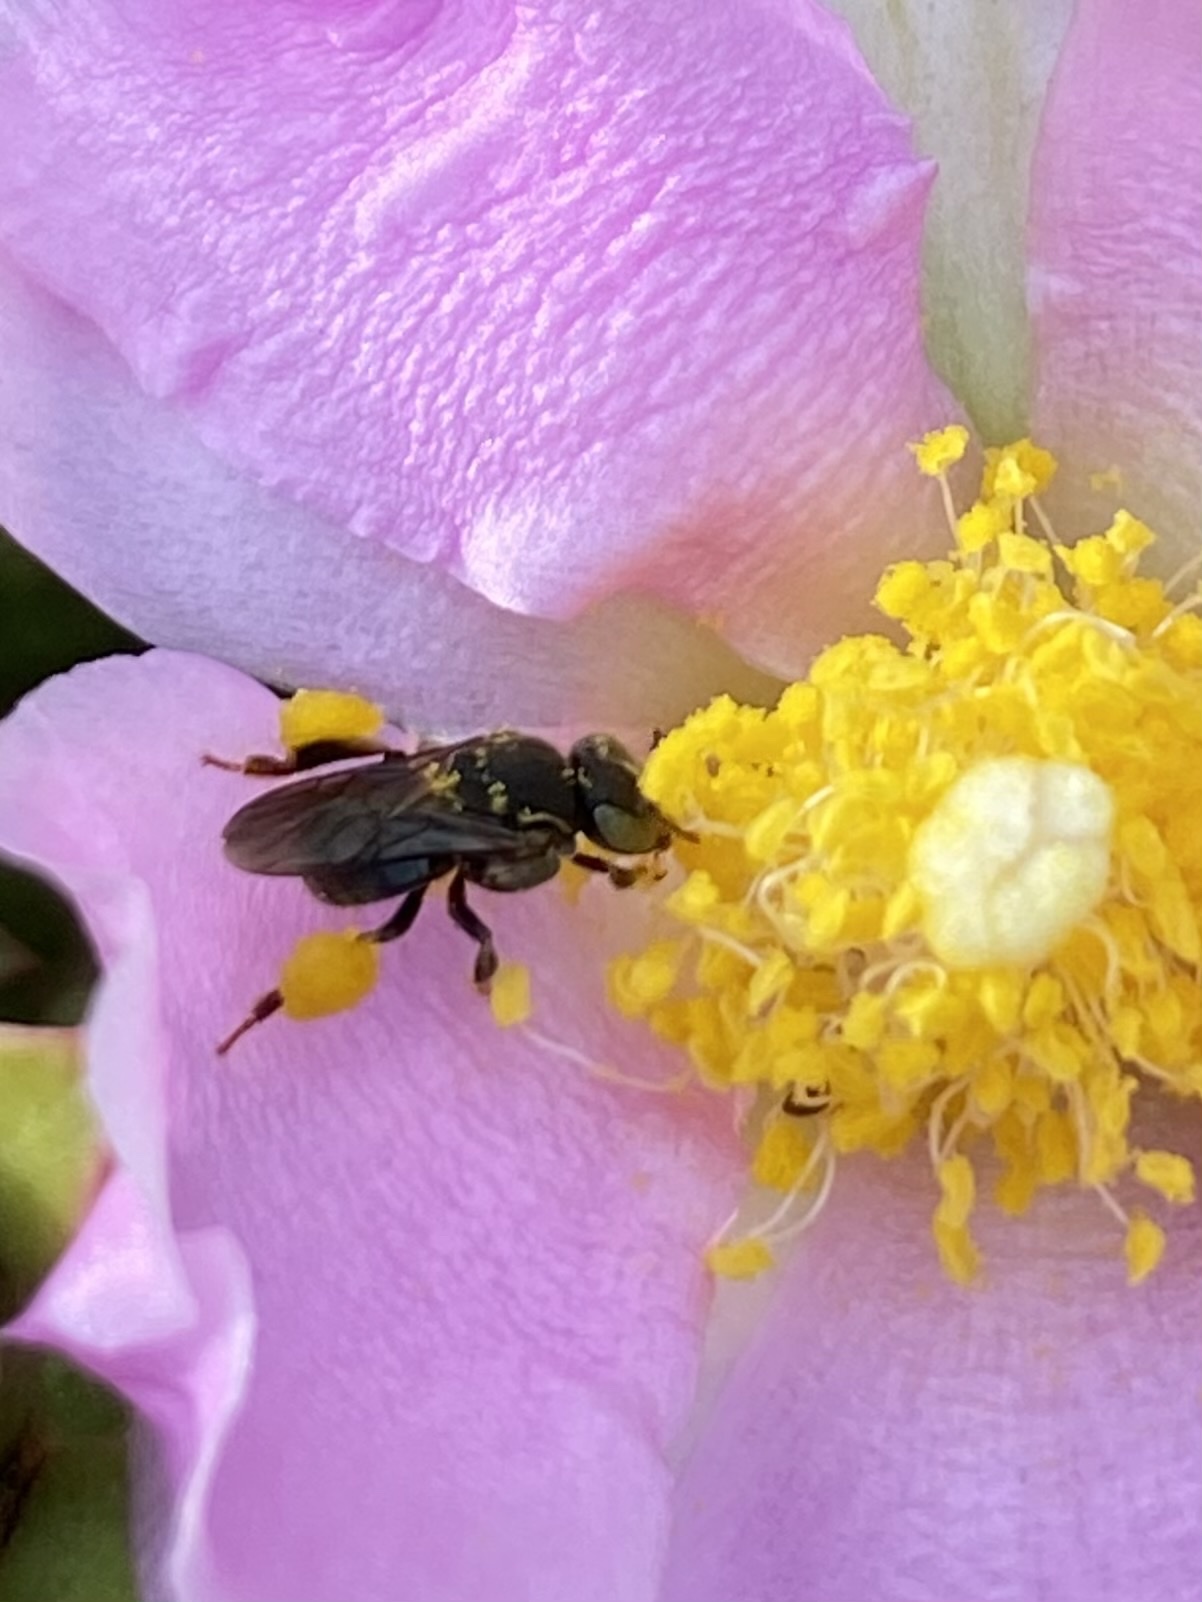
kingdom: Animalia
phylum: Arthropoda
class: Insecta
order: Hymenoptera
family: Apidae
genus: Nannotrigona
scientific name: Nannotrigona perilampoides
